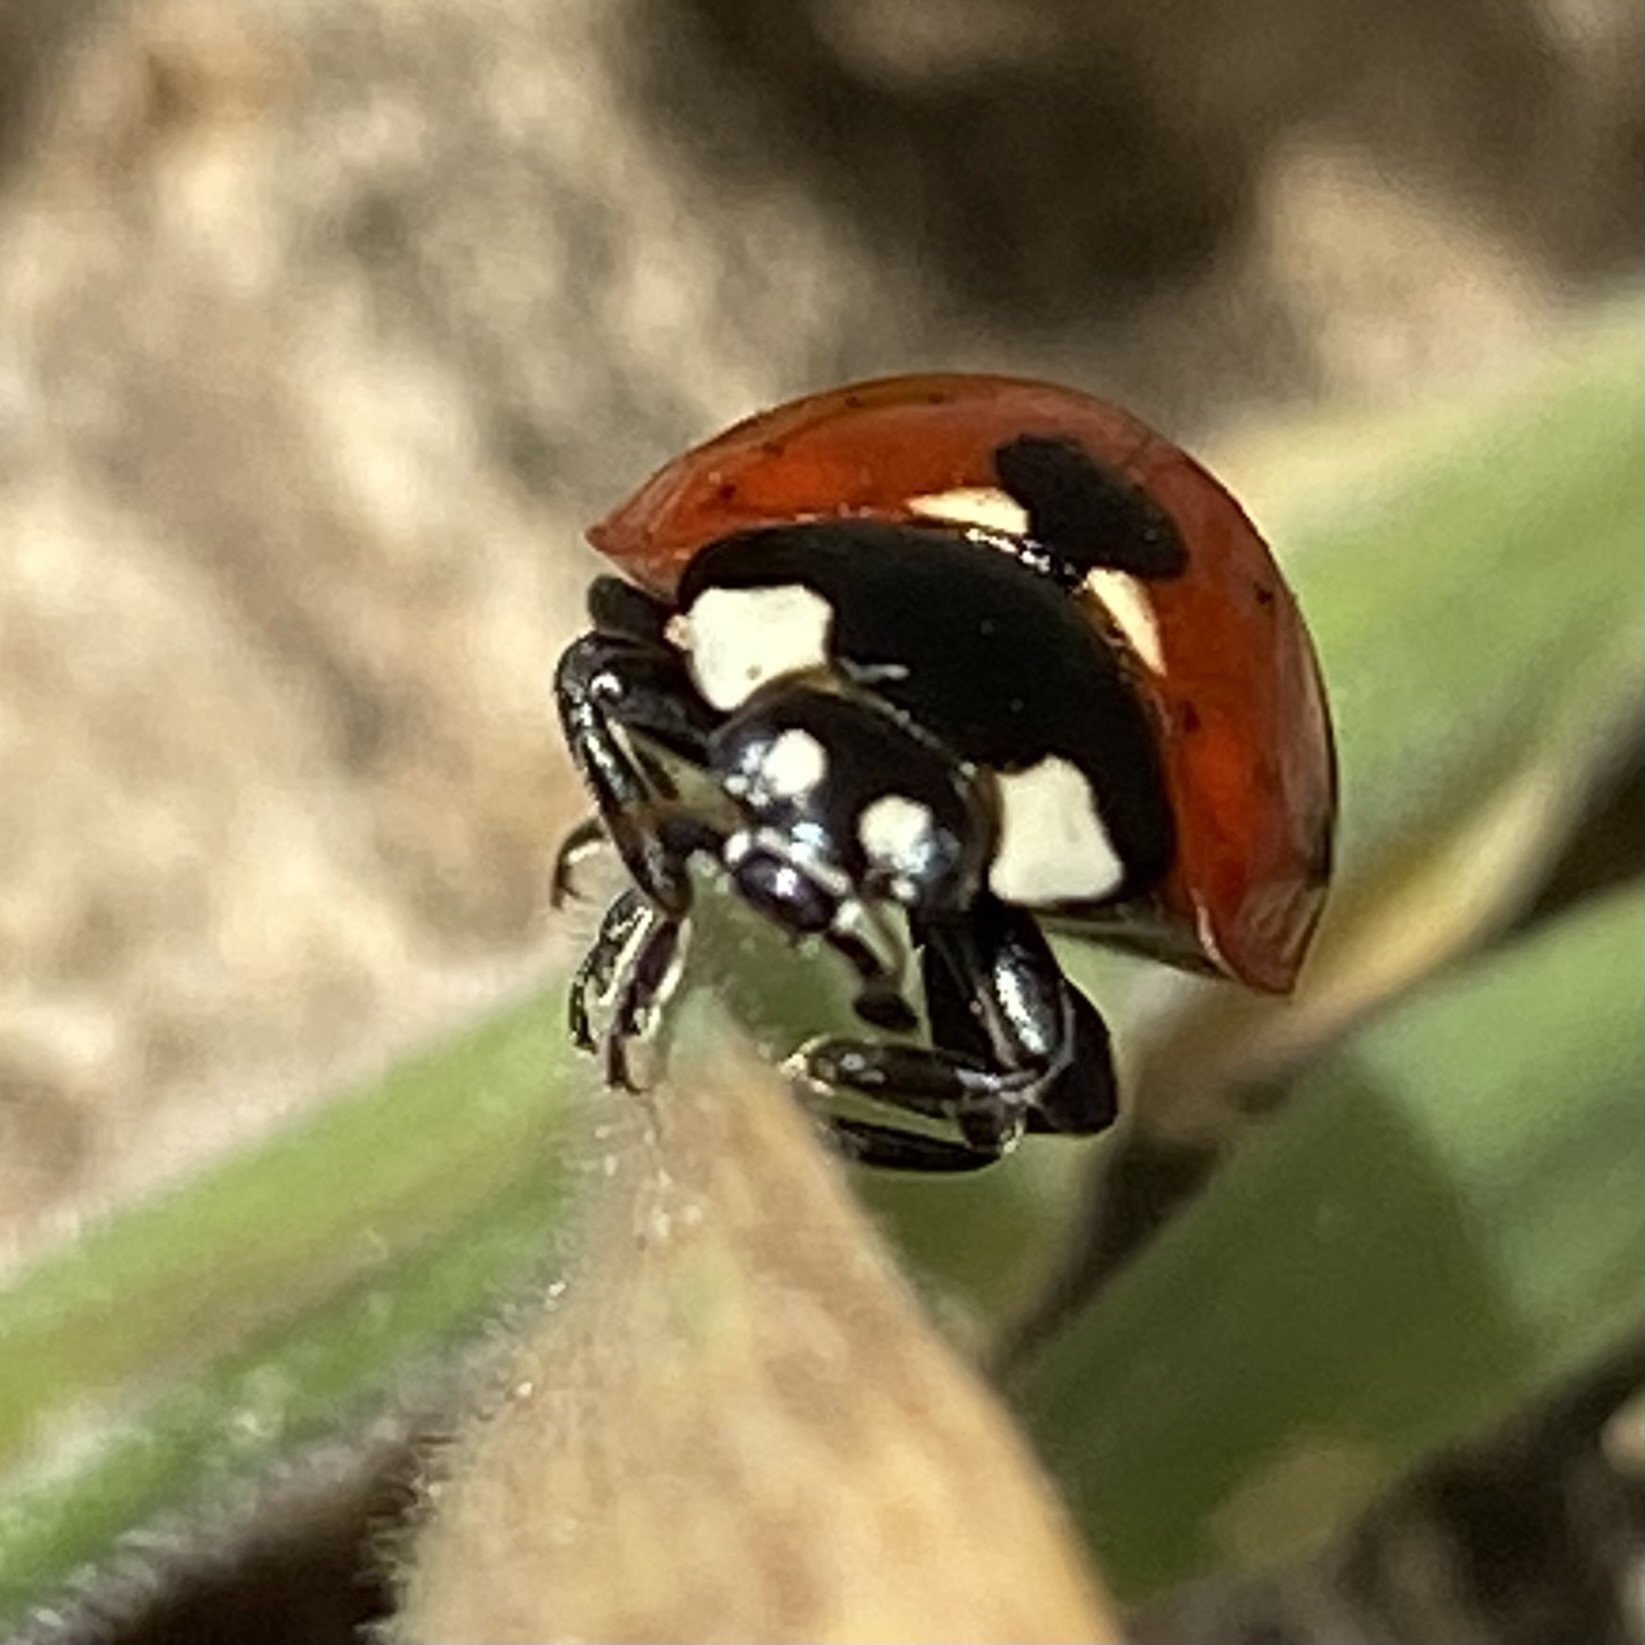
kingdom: Animalia
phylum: Arthropoda
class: Insecta
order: Coleoptera
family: Coccinellidae
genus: Coccinella
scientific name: Coccinella septempunctata
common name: Sevenspotted lady beetle
